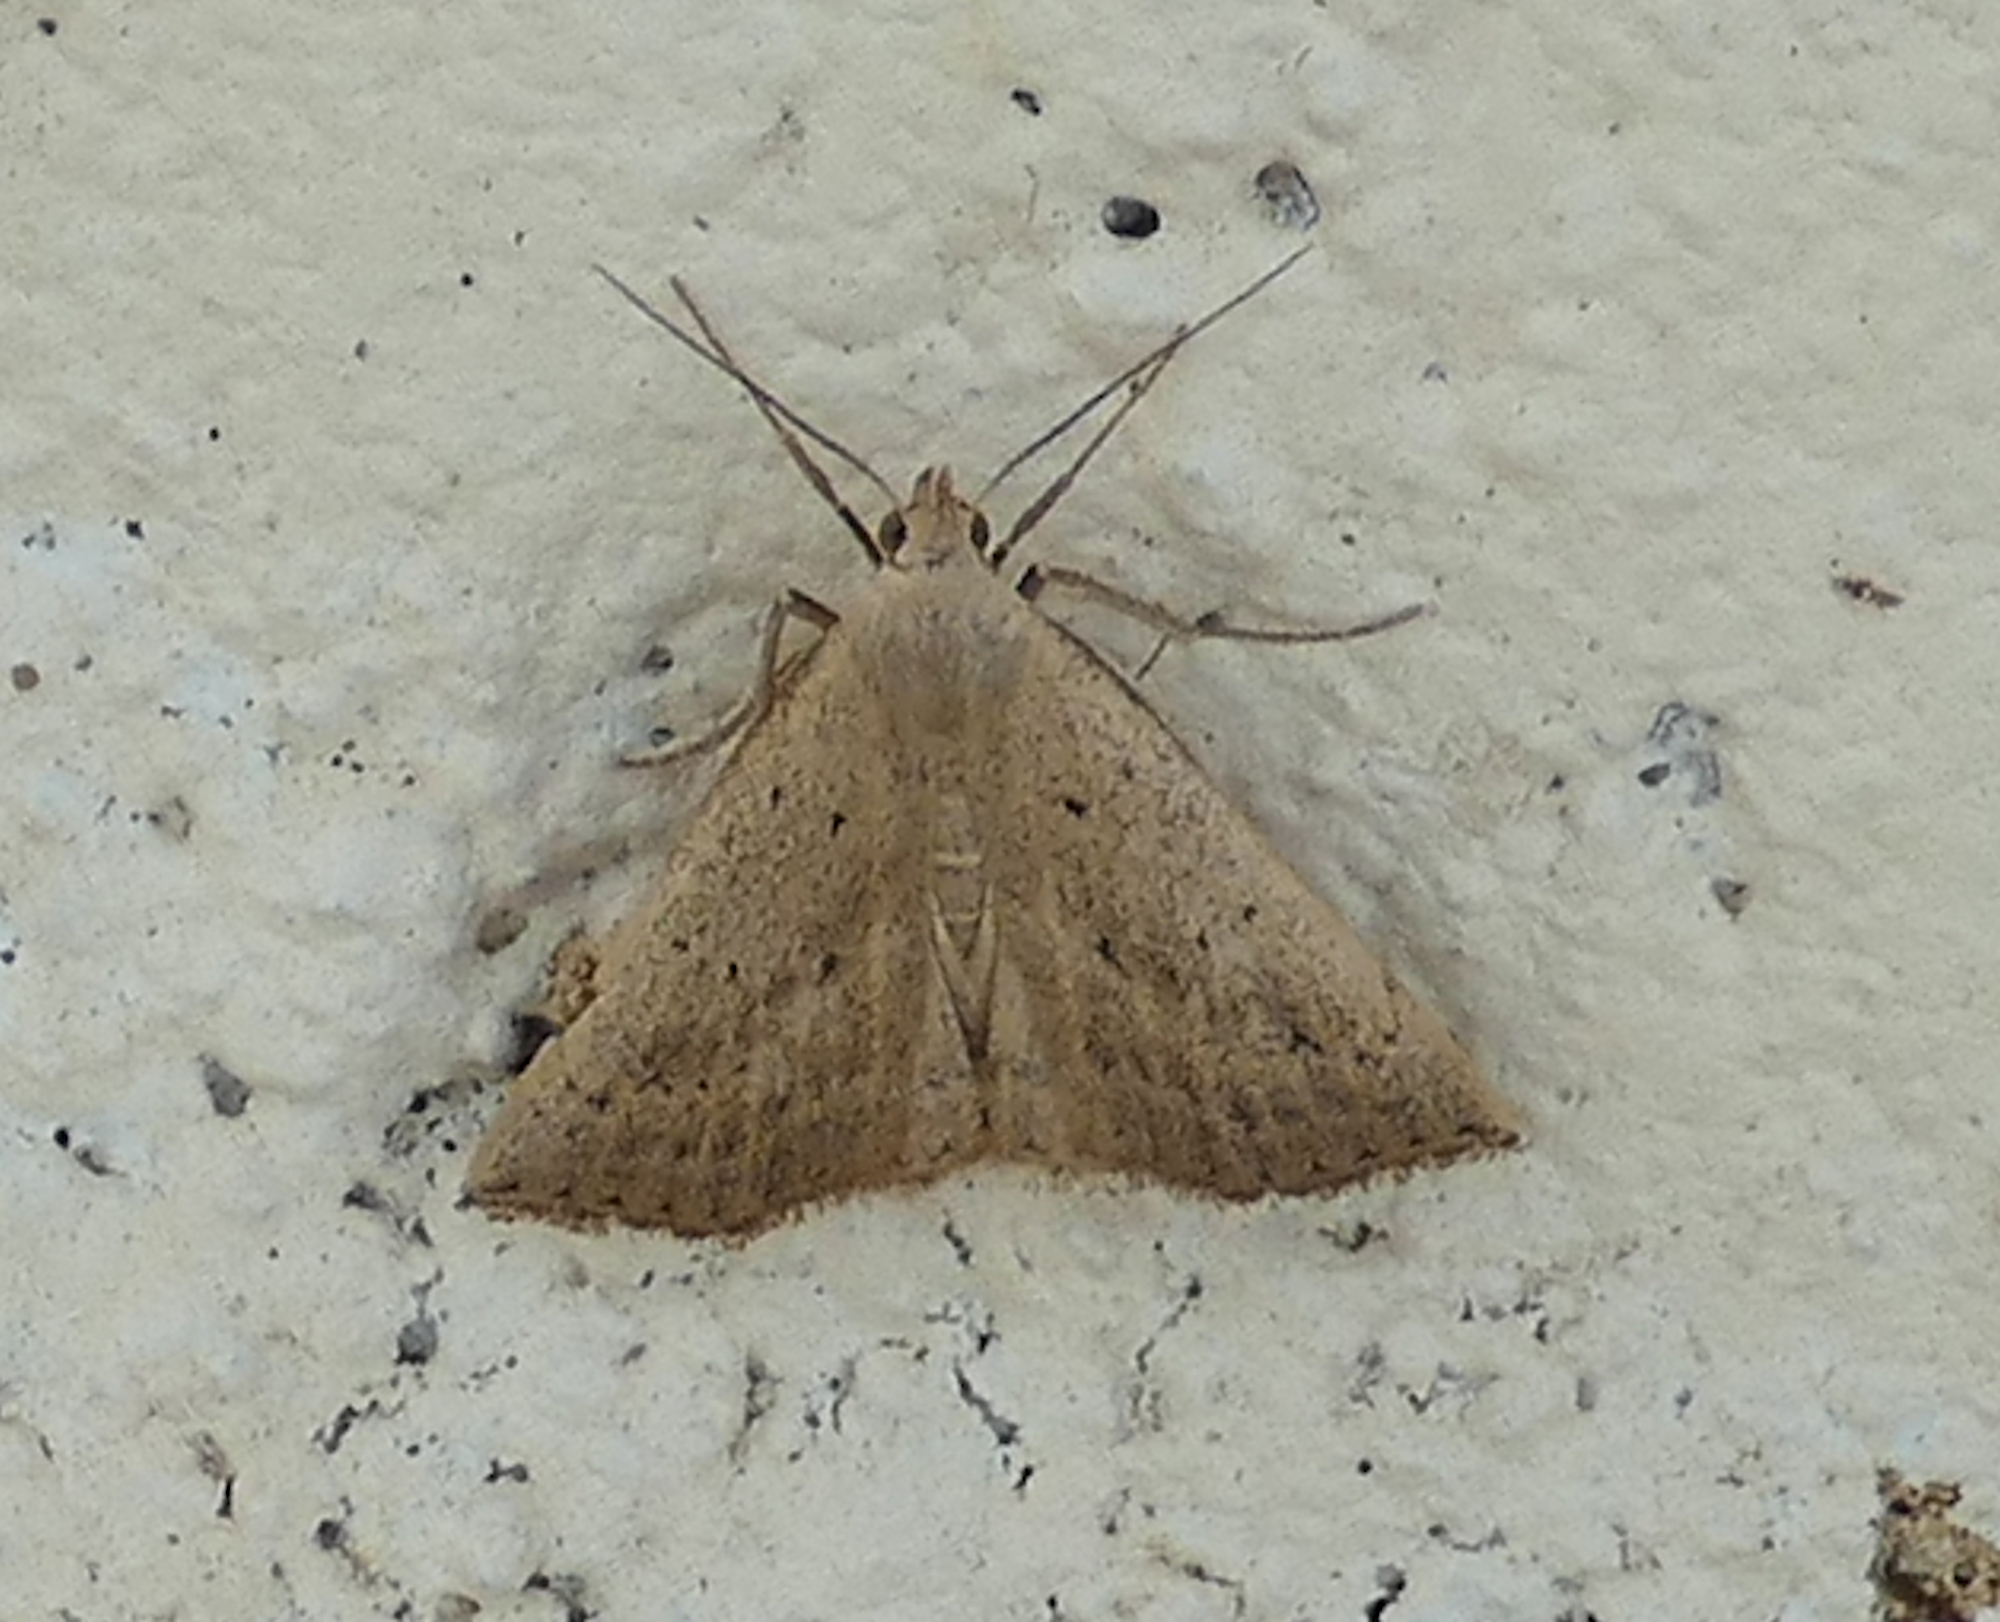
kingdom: Animalia
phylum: Arthropoda
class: Insecta
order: Lepidoptera
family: Erebidae
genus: Macrochilo
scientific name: Macrochilo louisiana
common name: Louisiana macrochilo
